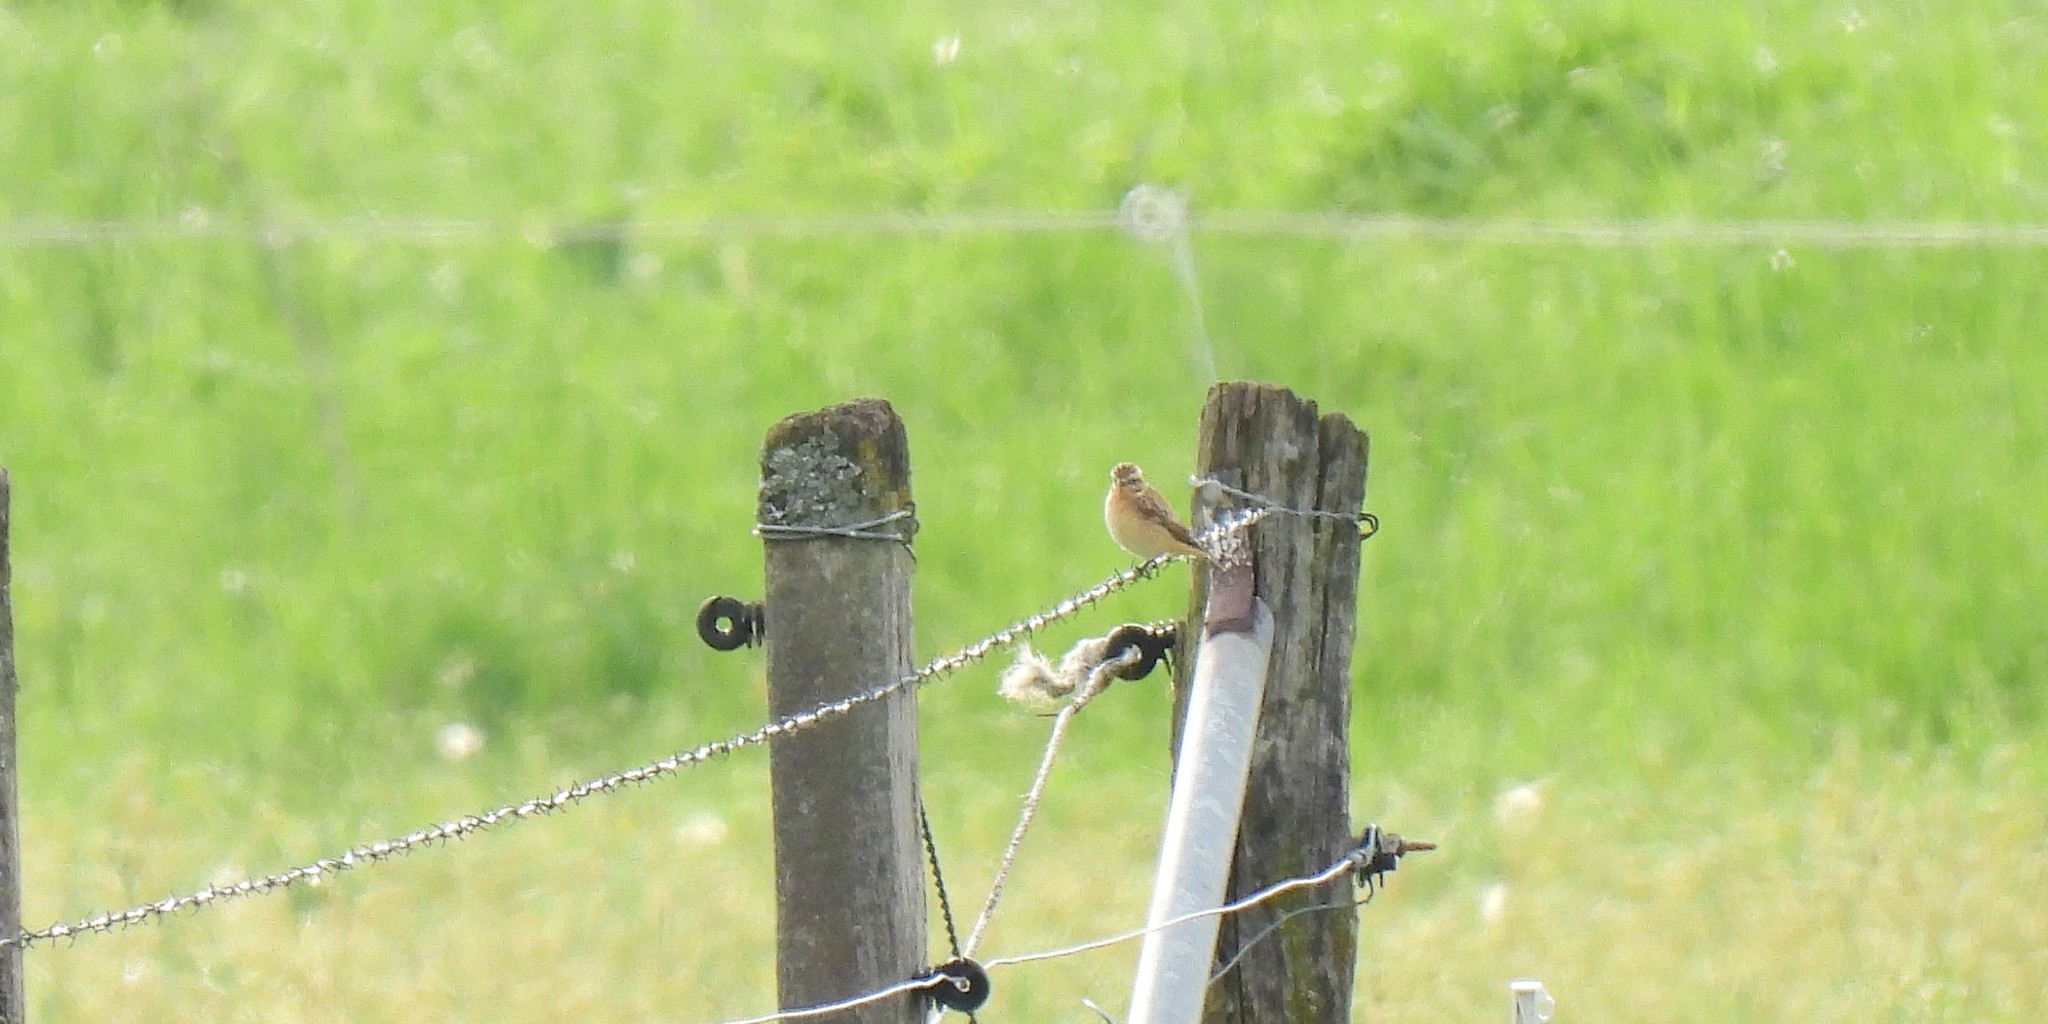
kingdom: Animalia
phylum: Chordata
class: Aves
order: Passeriformes
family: Muscicapidae
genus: Saxicola
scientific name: Saxicola rubetra
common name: Whinchat
